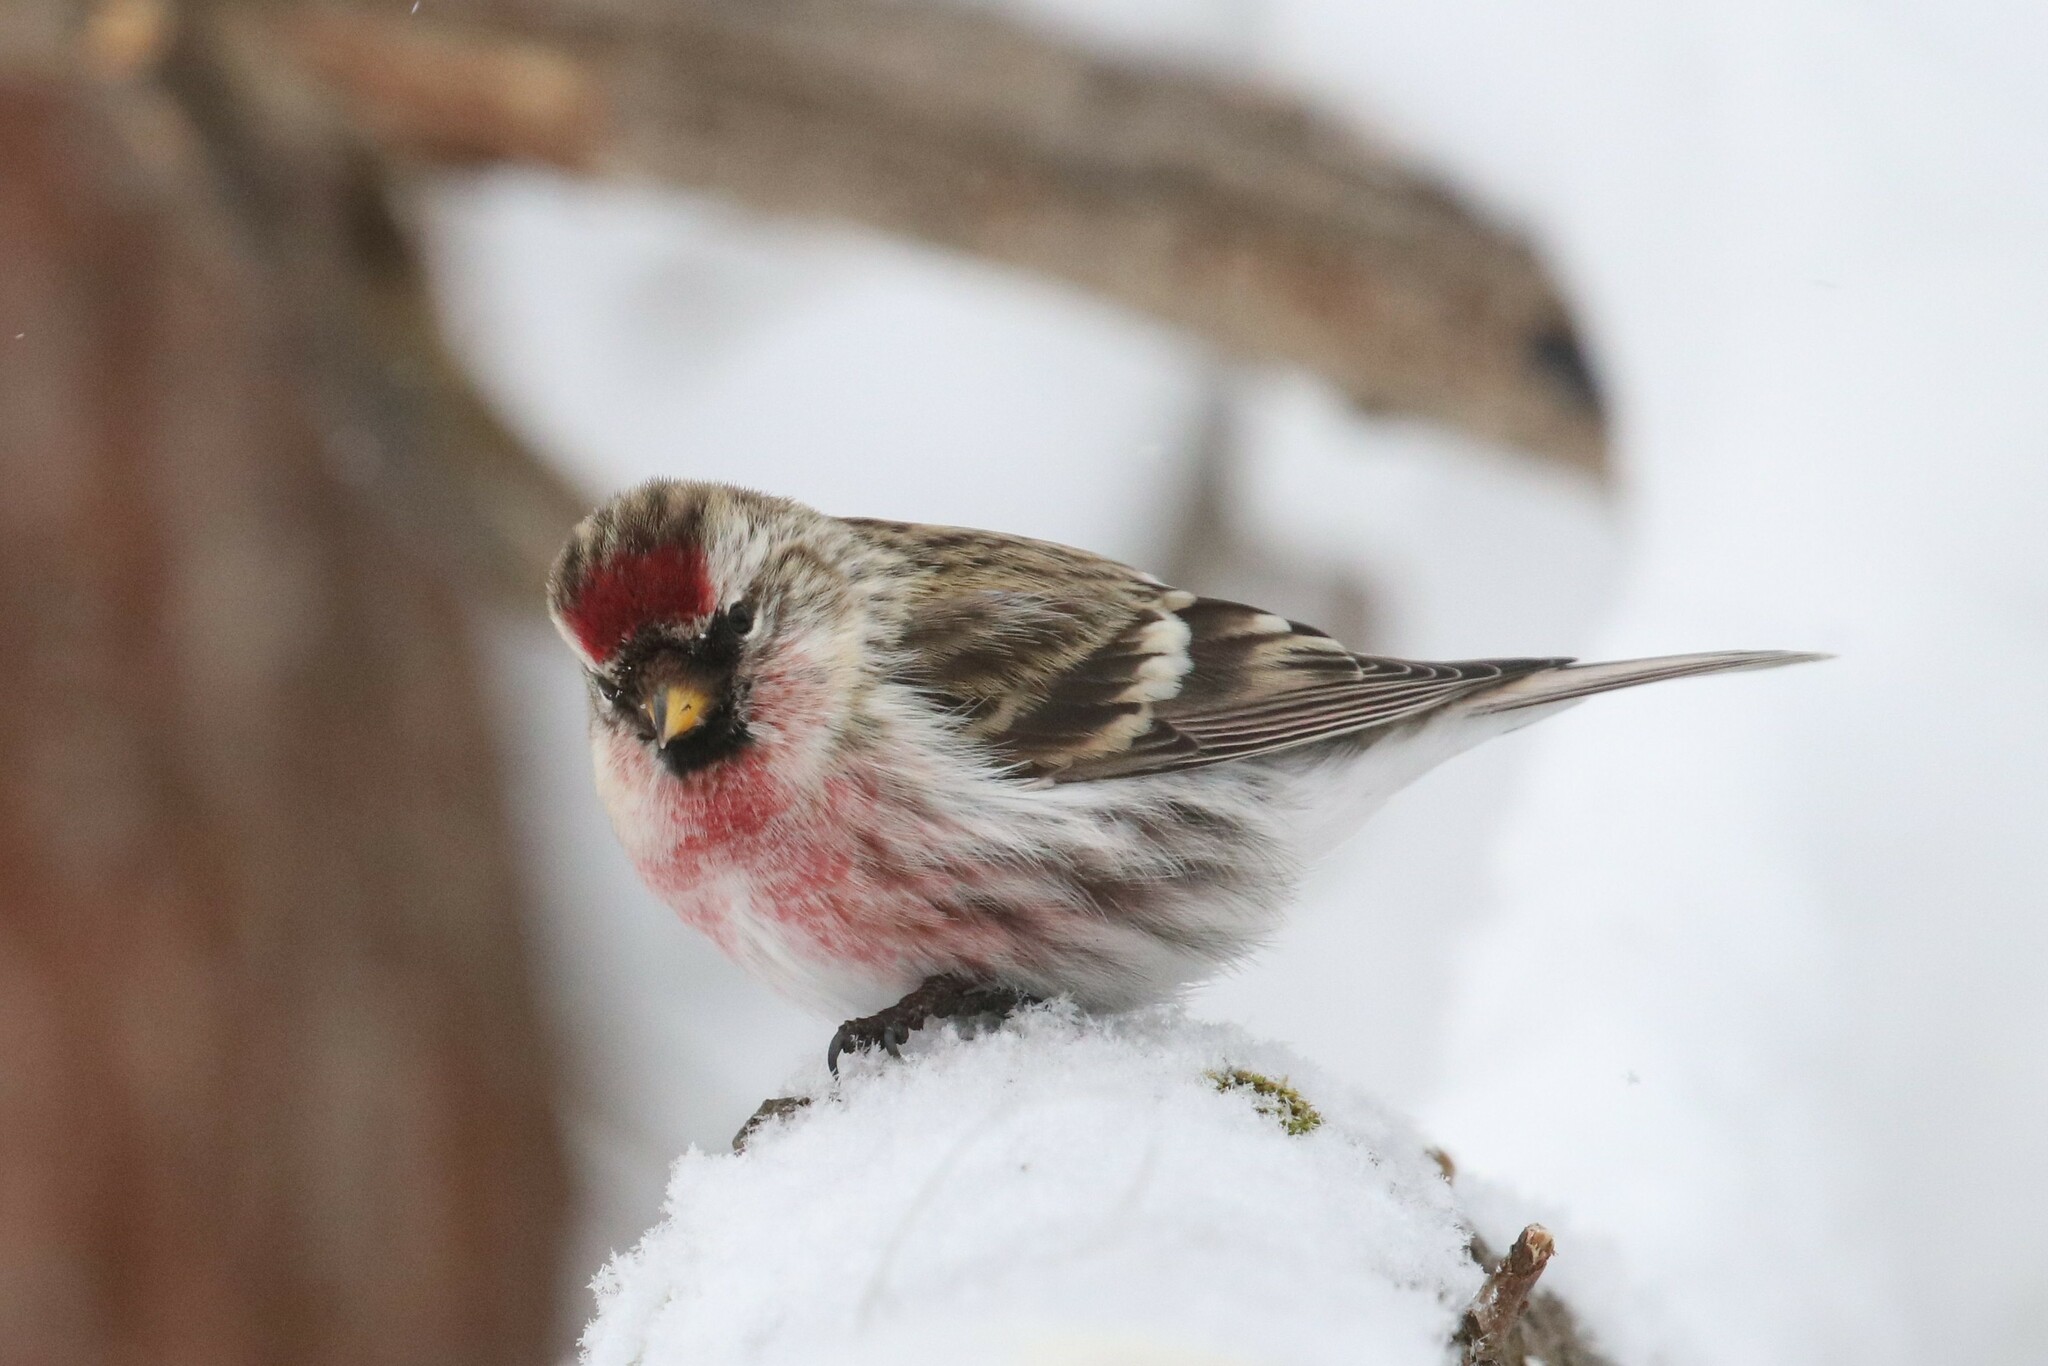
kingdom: Animalia
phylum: Chordata
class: Aves
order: Passeriformes
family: Fringillidae
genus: Acanthis
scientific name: Acanthis flammea
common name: Common redpoll
